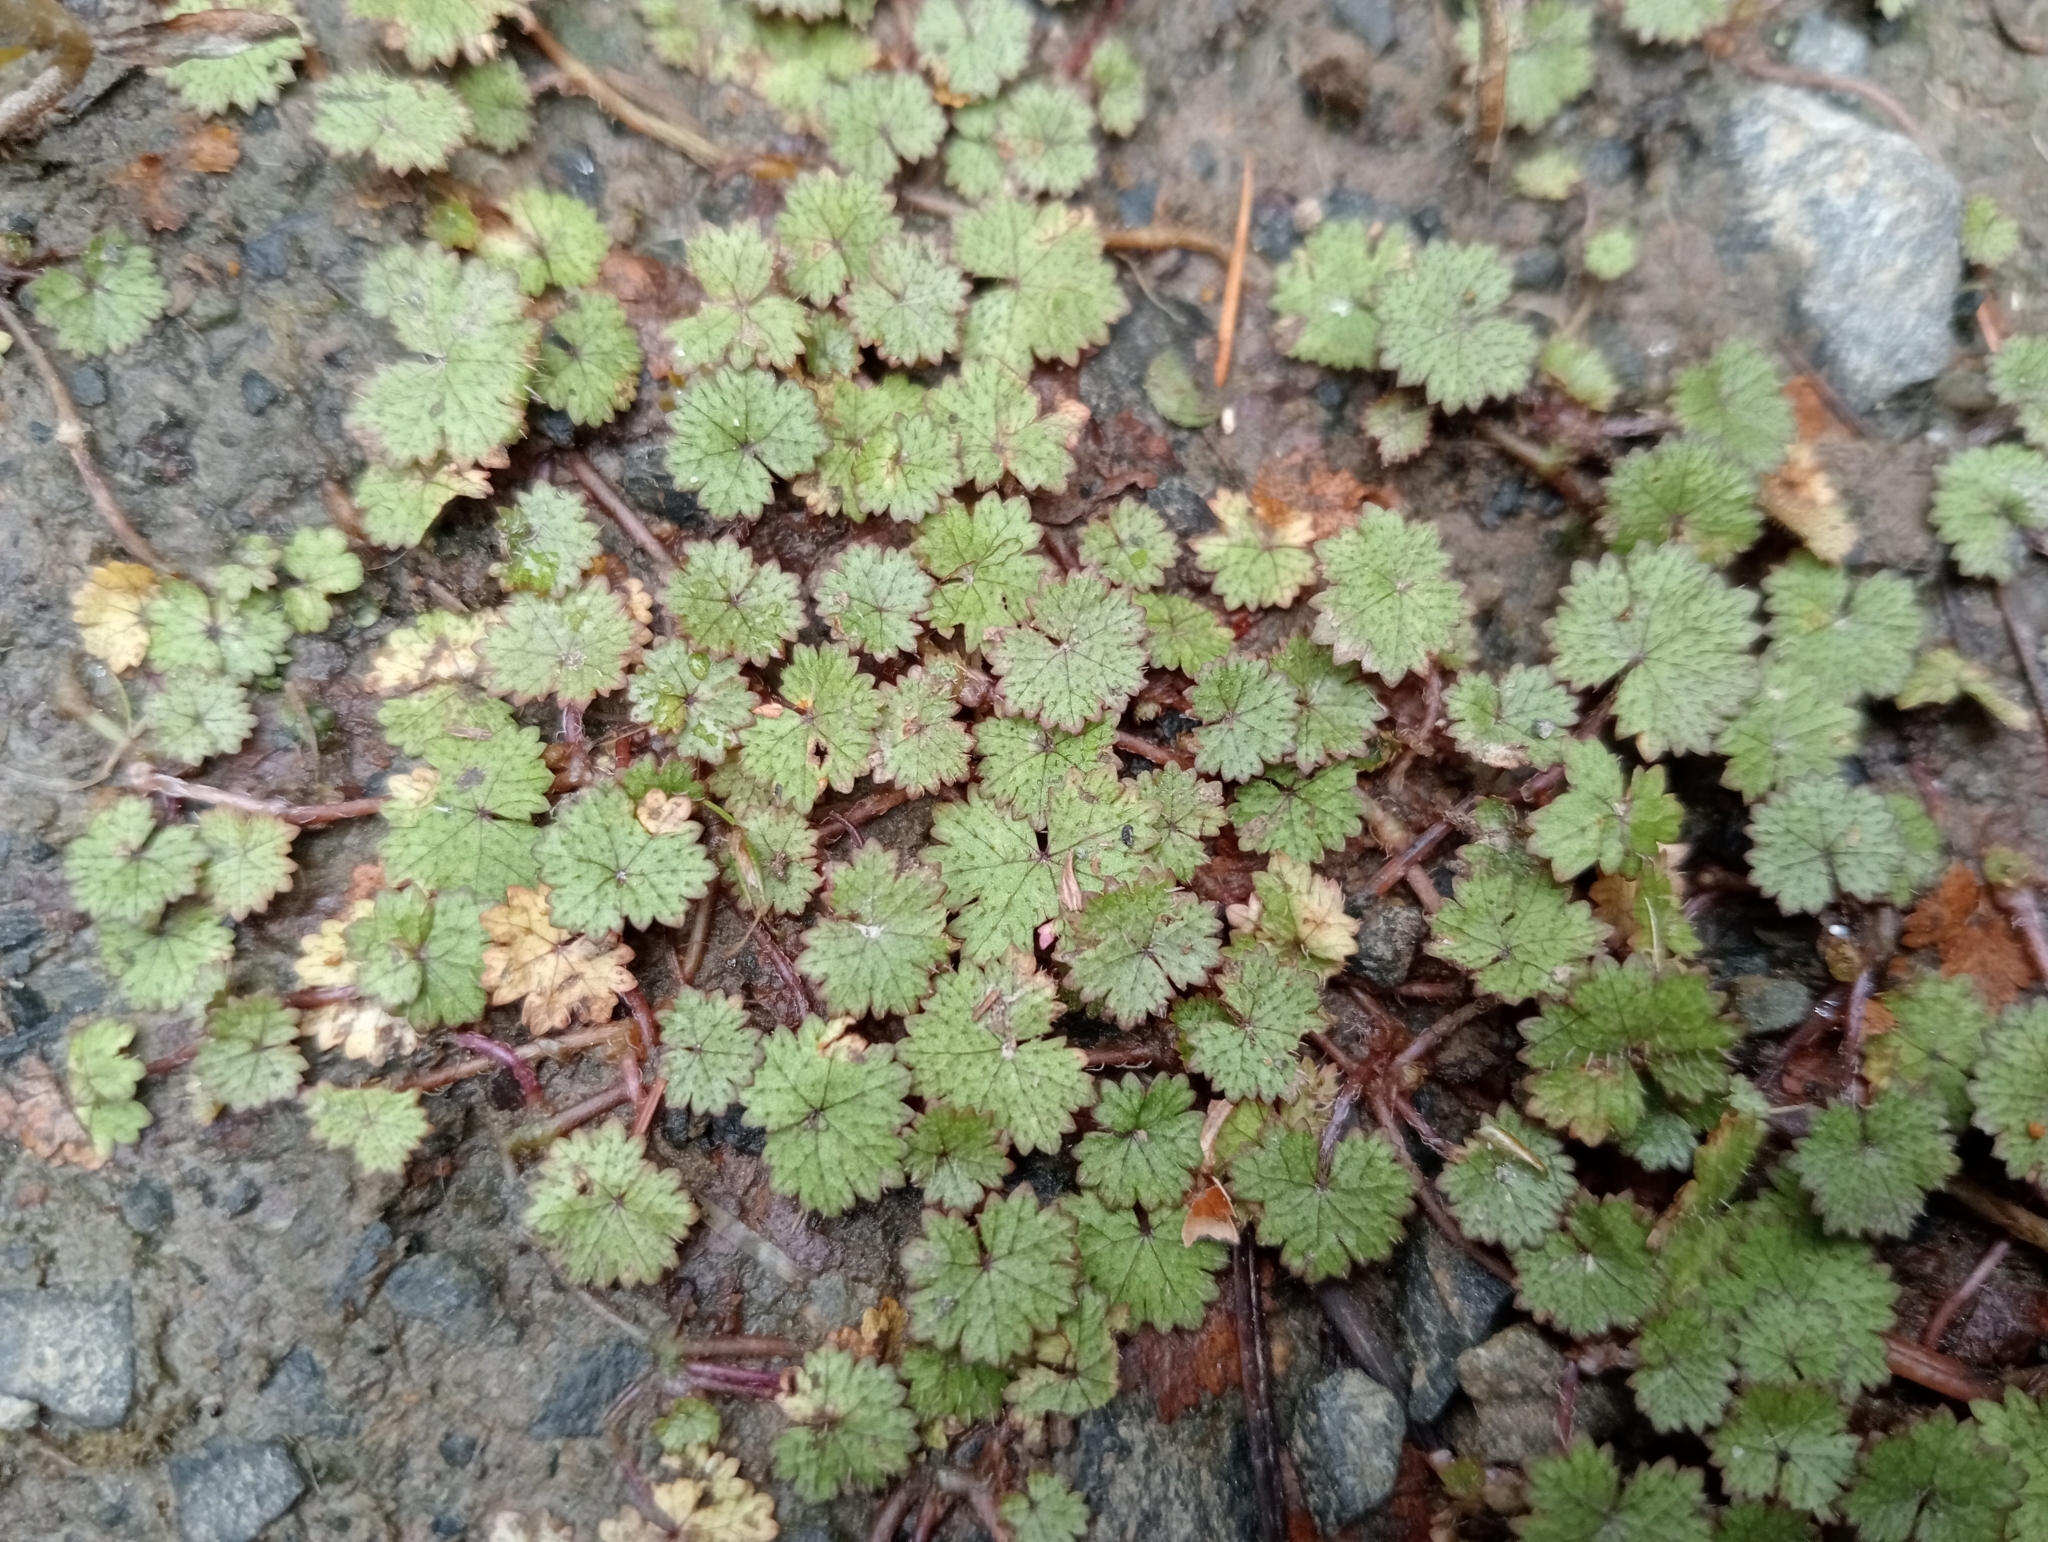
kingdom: Plantae
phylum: Tracheophyta
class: Magnoliopsida
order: Apiales
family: Araliaceae
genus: Hydrocotyle
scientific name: Hydrocotyle moschata
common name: Hairy pennywort
